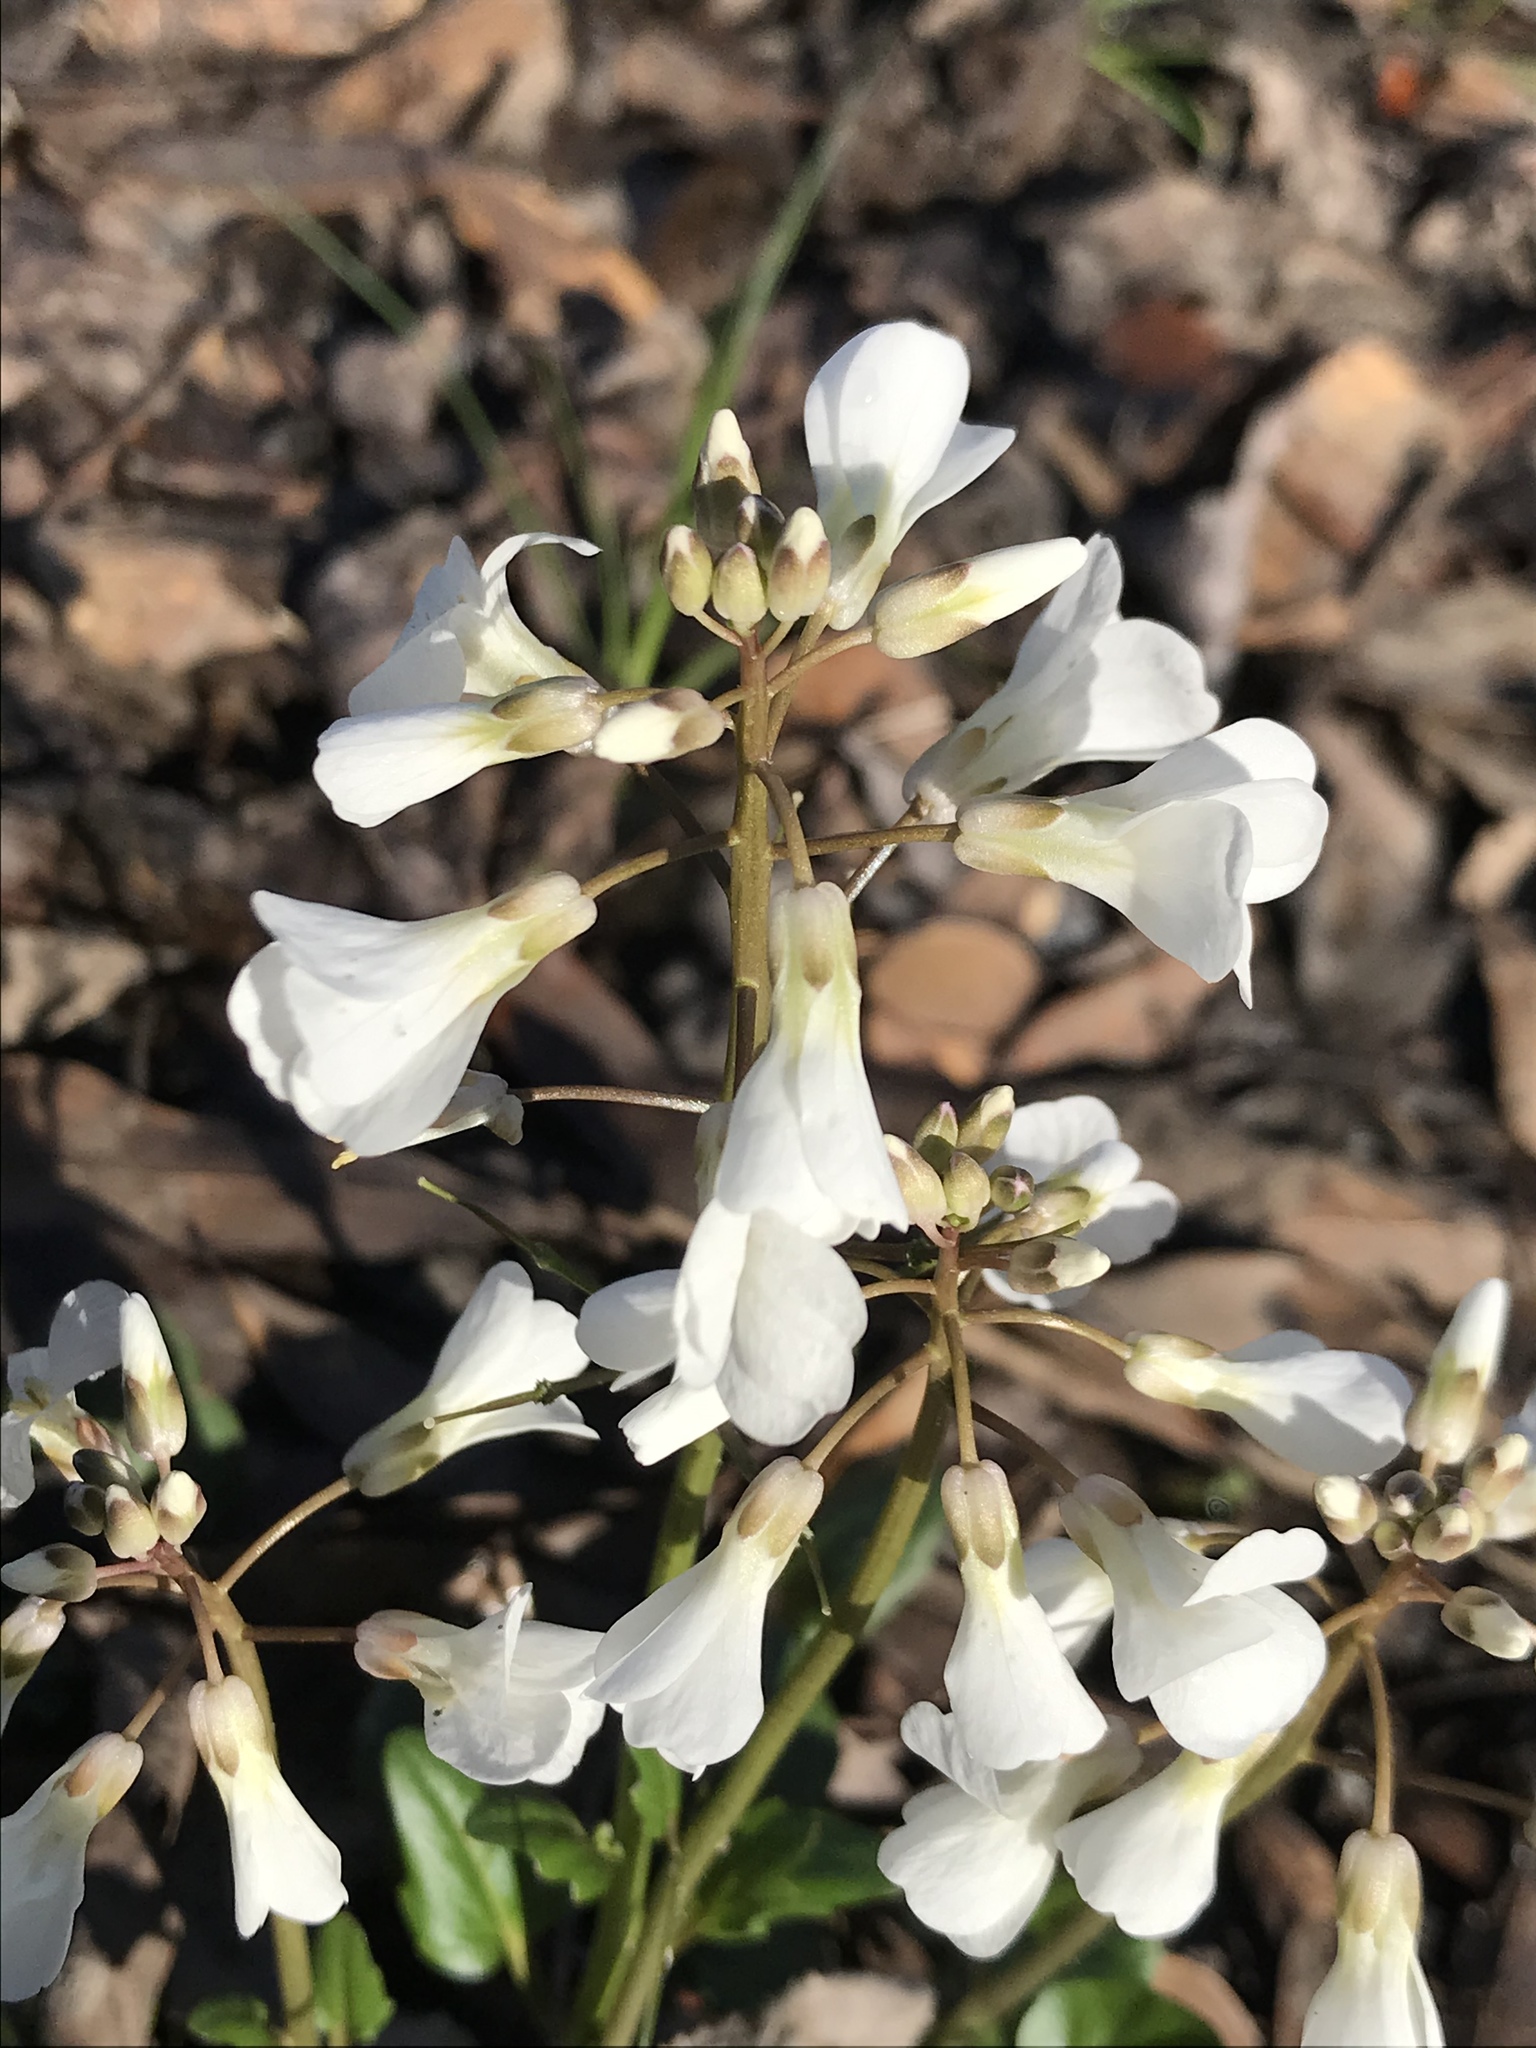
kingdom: Plantae
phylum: Tracheophyta
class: Magnoliopsida
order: Brassicales
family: Brassicaceae
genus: Cardamine
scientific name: Cardamine bulbosa
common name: Spring cress
